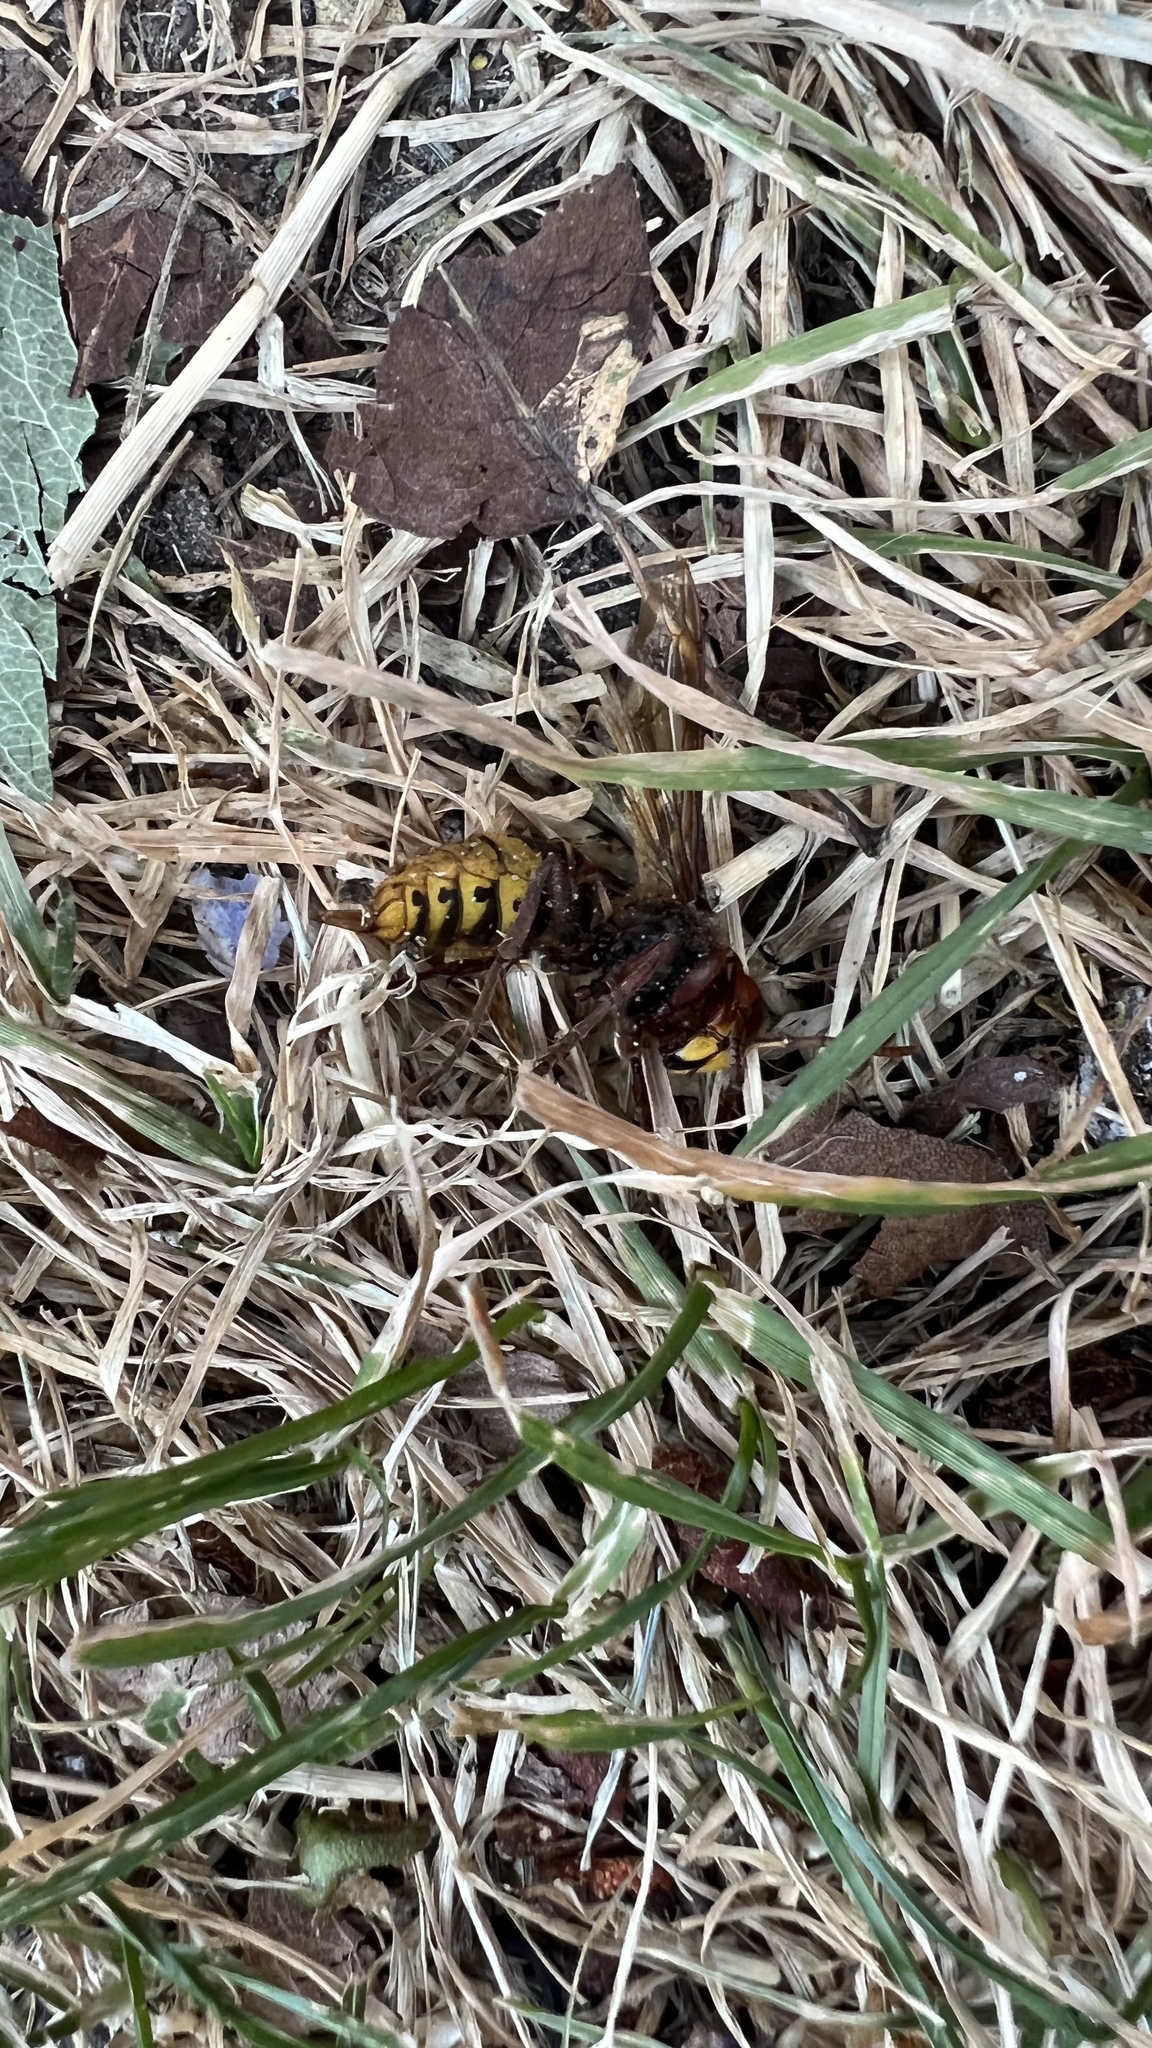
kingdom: Animalia
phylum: Arthropoda
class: Insecta
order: Hymenoptera
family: Vespidae
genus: Vespa
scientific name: Vespa crabro
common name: Hornet
